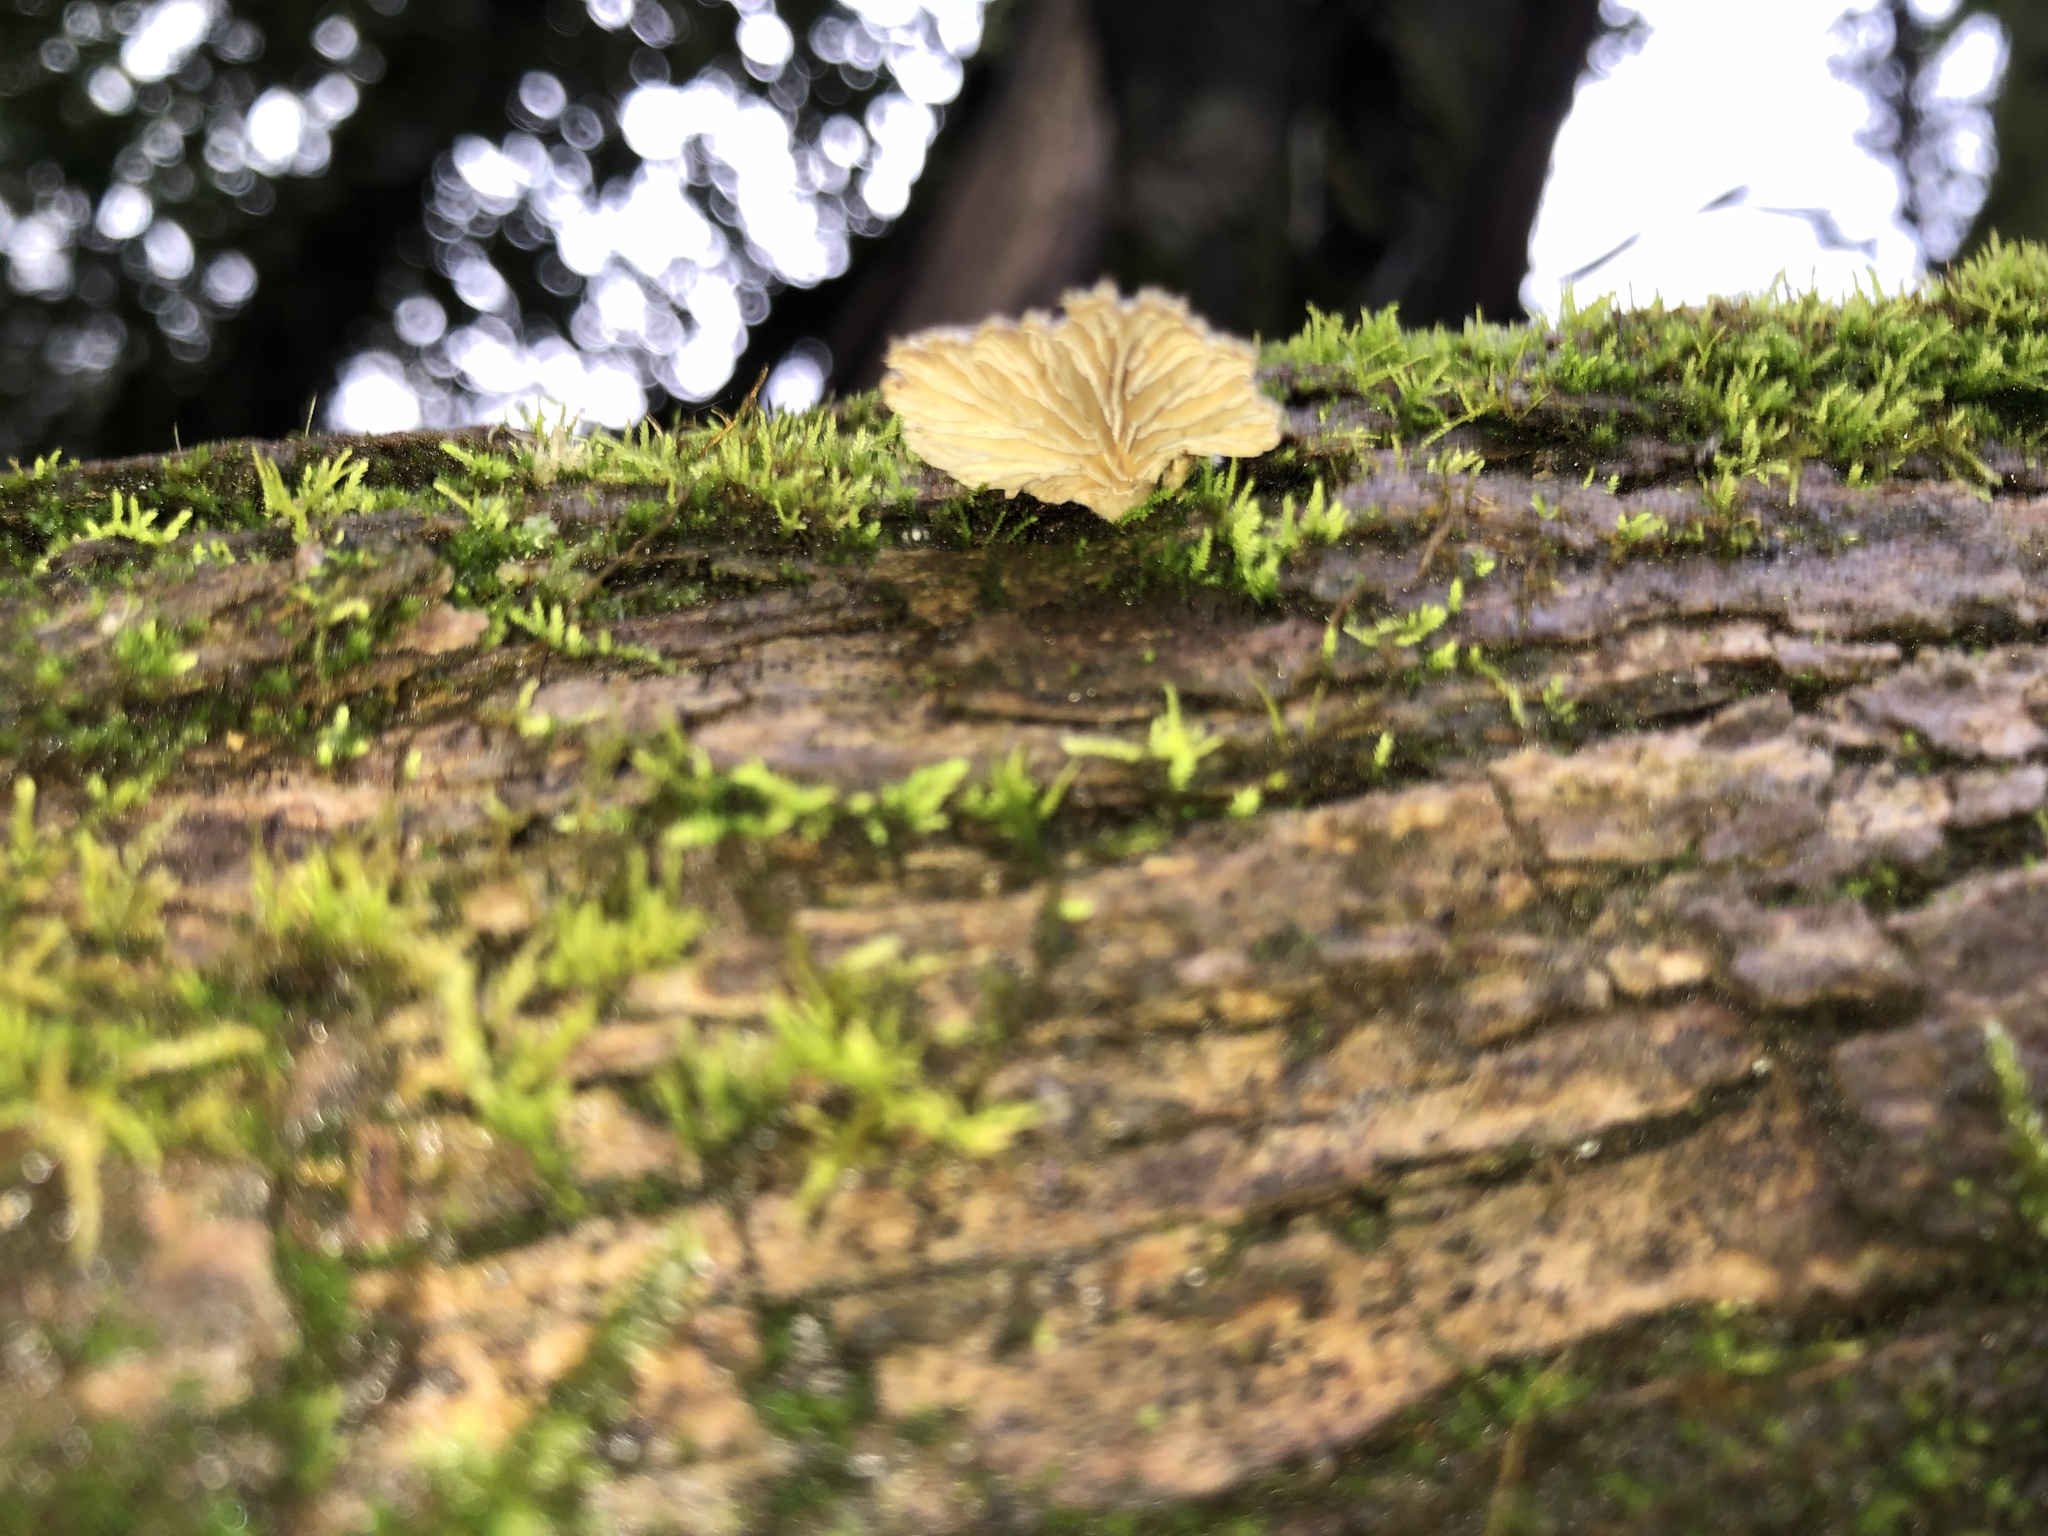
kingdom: Fungi
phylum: Basidiomycota
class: Agaricomycetes
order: Agaricales
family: Schizophyllaceae
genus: Schizophyllum
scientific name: Schizophyllum commune
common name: Common porecrust
